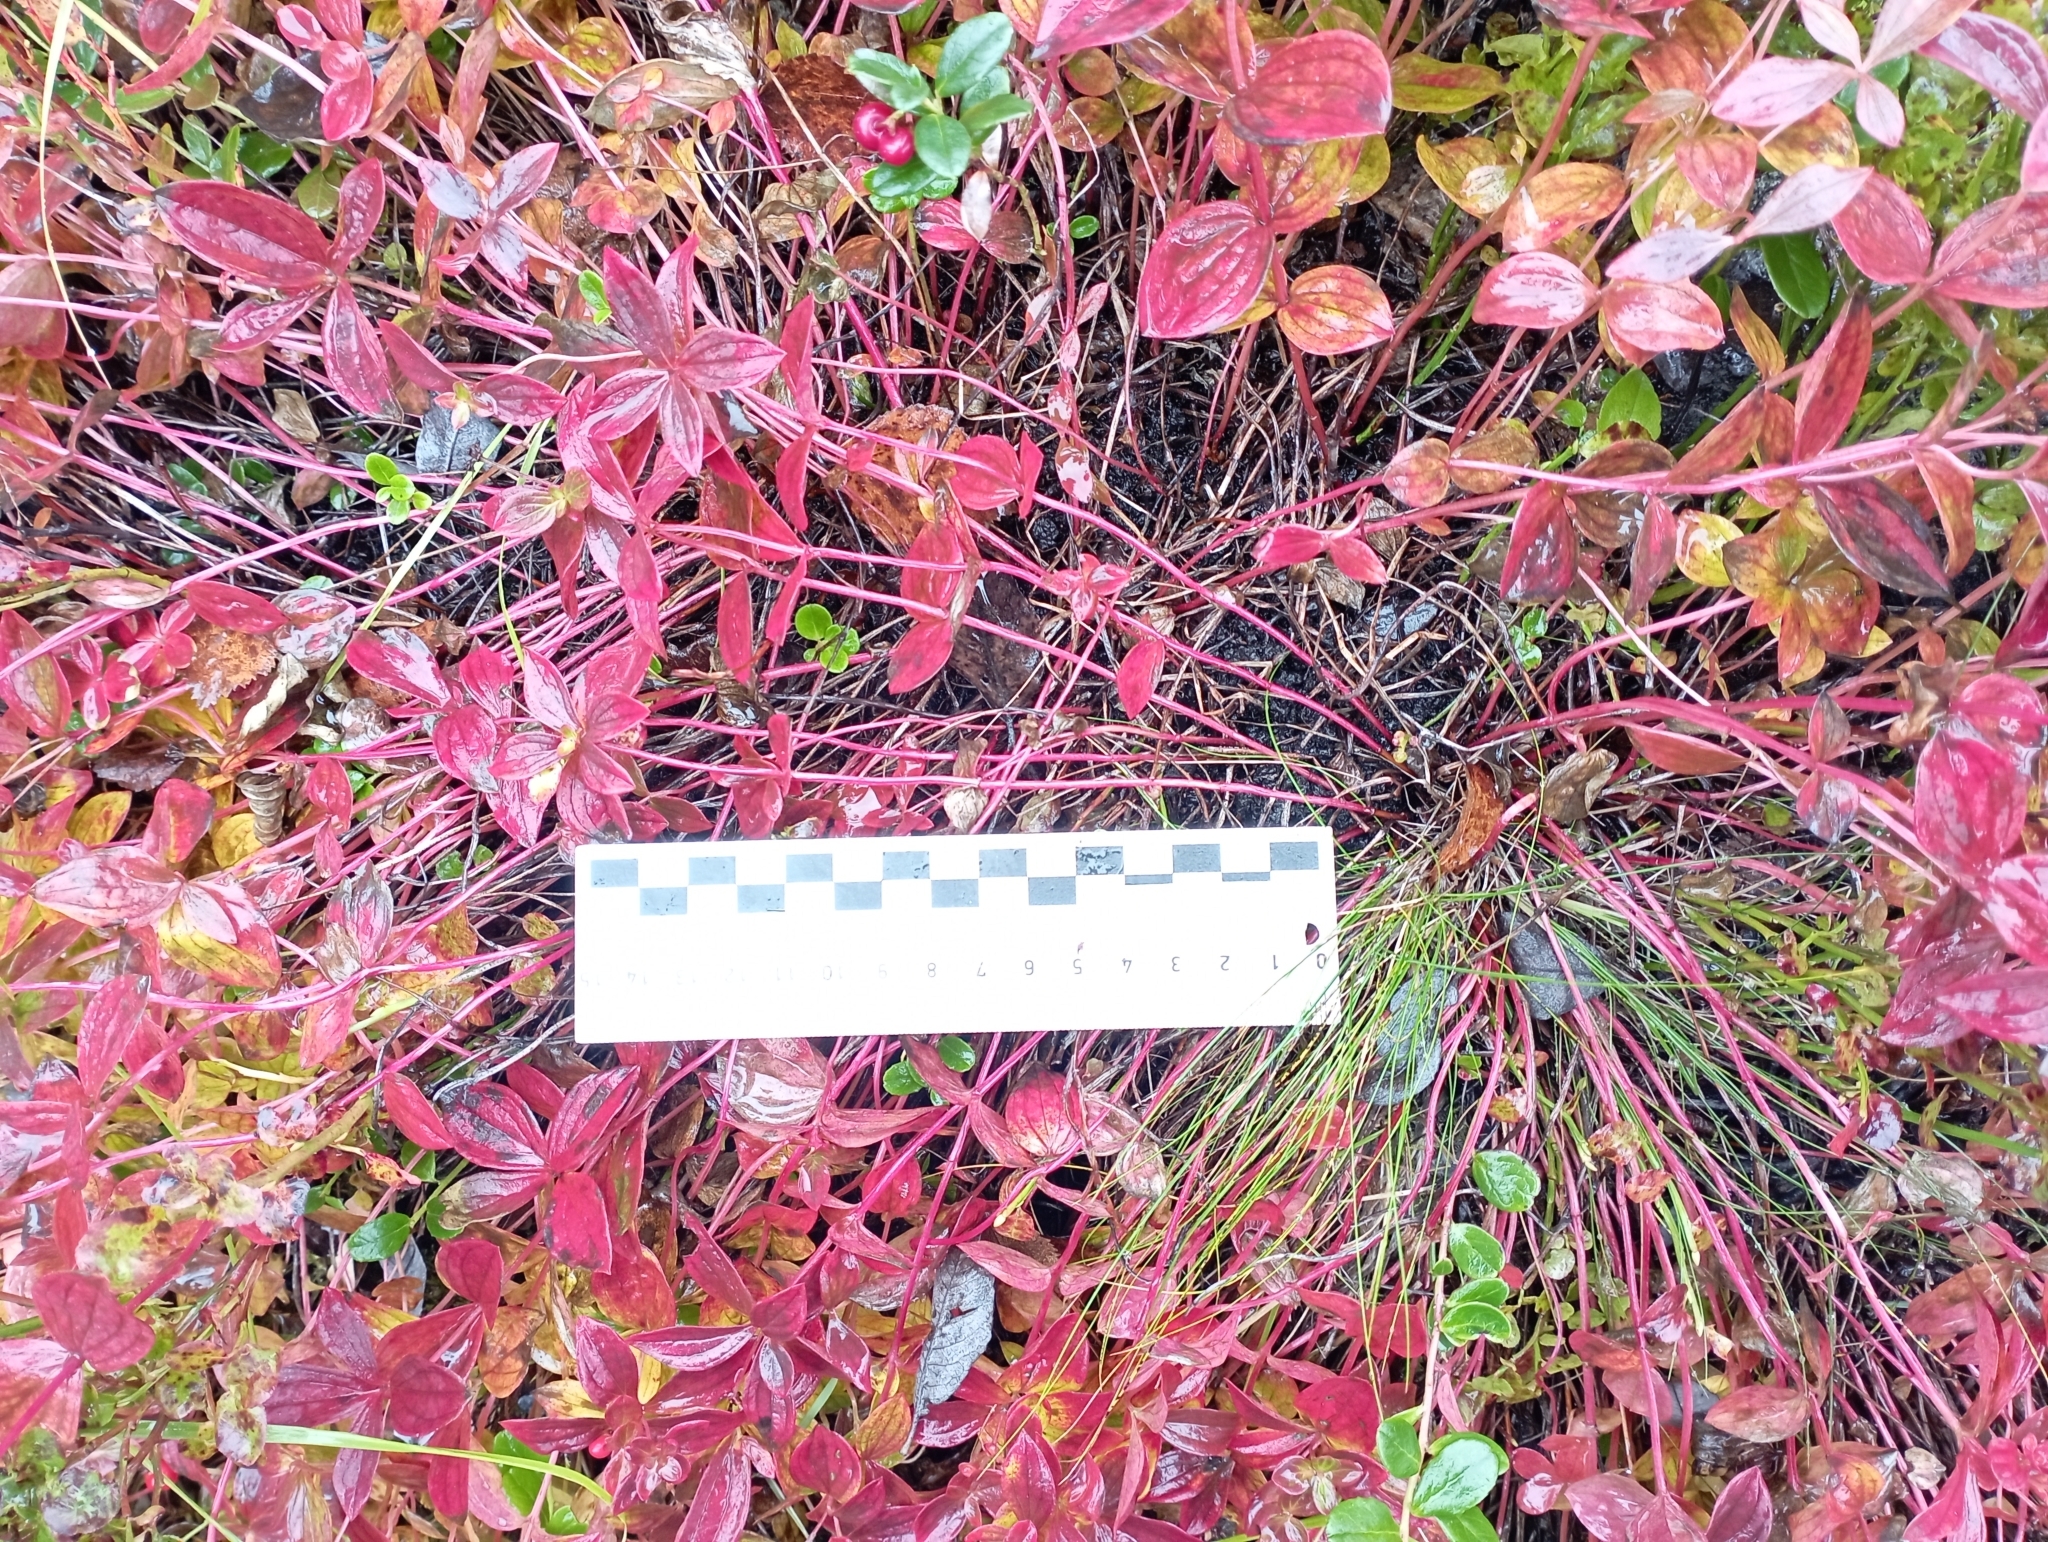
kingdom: Plantae
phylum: Tracheophyta
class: Magnoliopsida
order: Cornales
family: Cornaceae
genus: Cornus
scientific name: Cornus suecica
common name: Dwarf cornel
